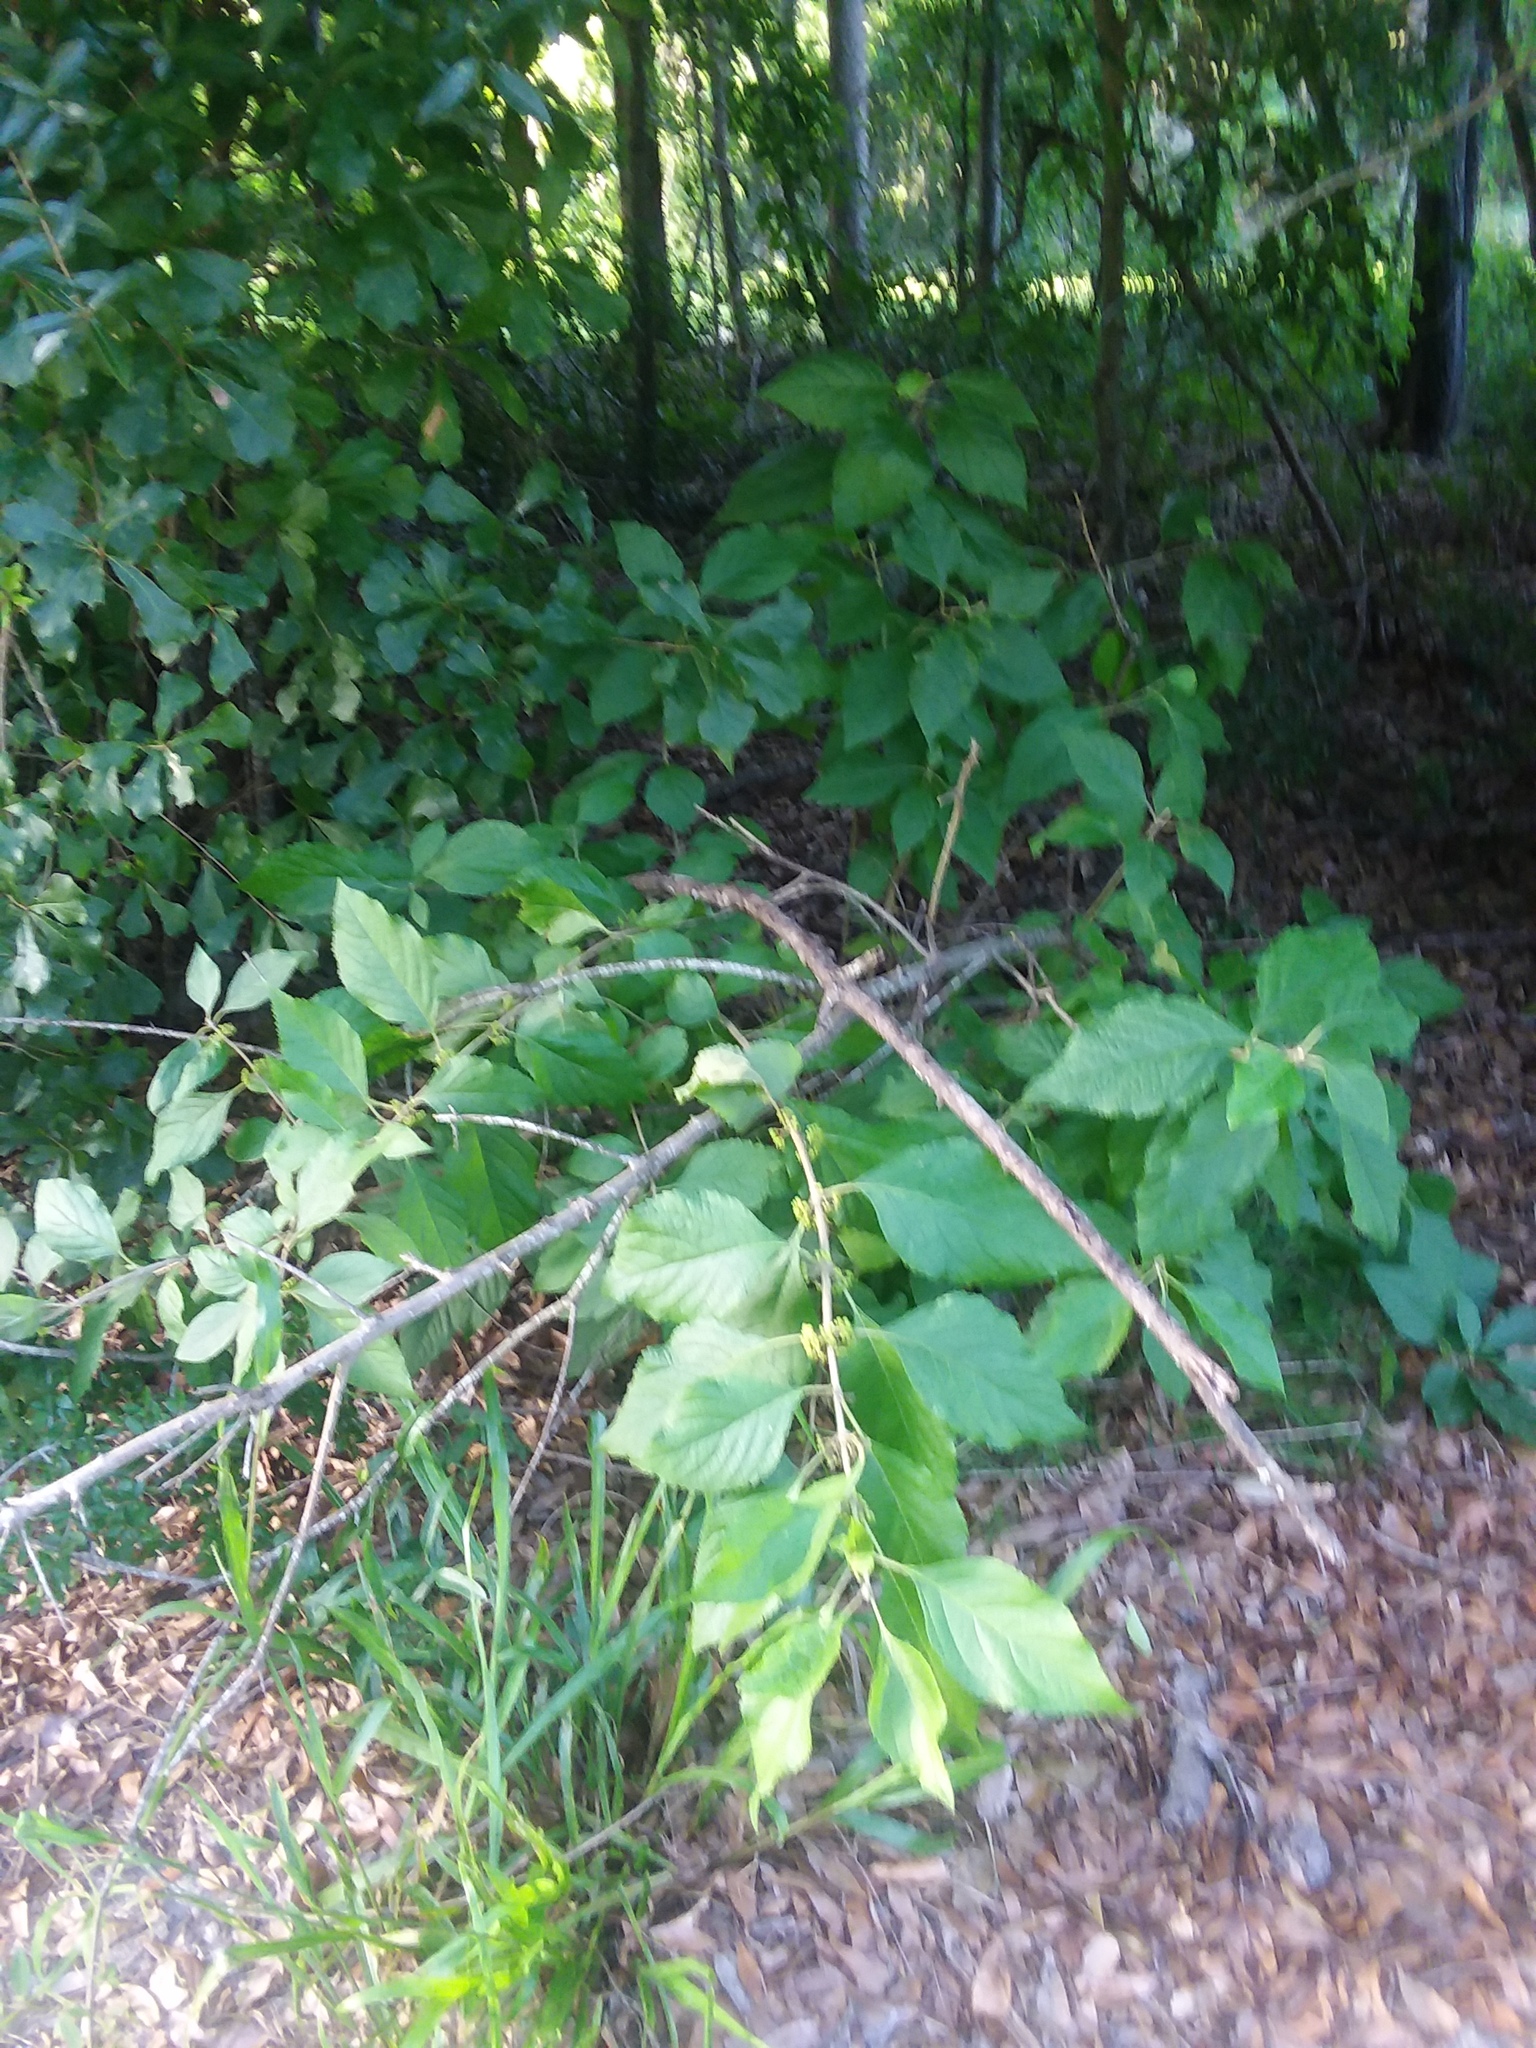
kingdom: Plantae
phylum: Tracheophyta
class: Magnoliopsida
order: Lamiales
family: Lamiaceae
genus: Callicarpa
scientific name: Callicarpa americana
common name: American beautyberry
